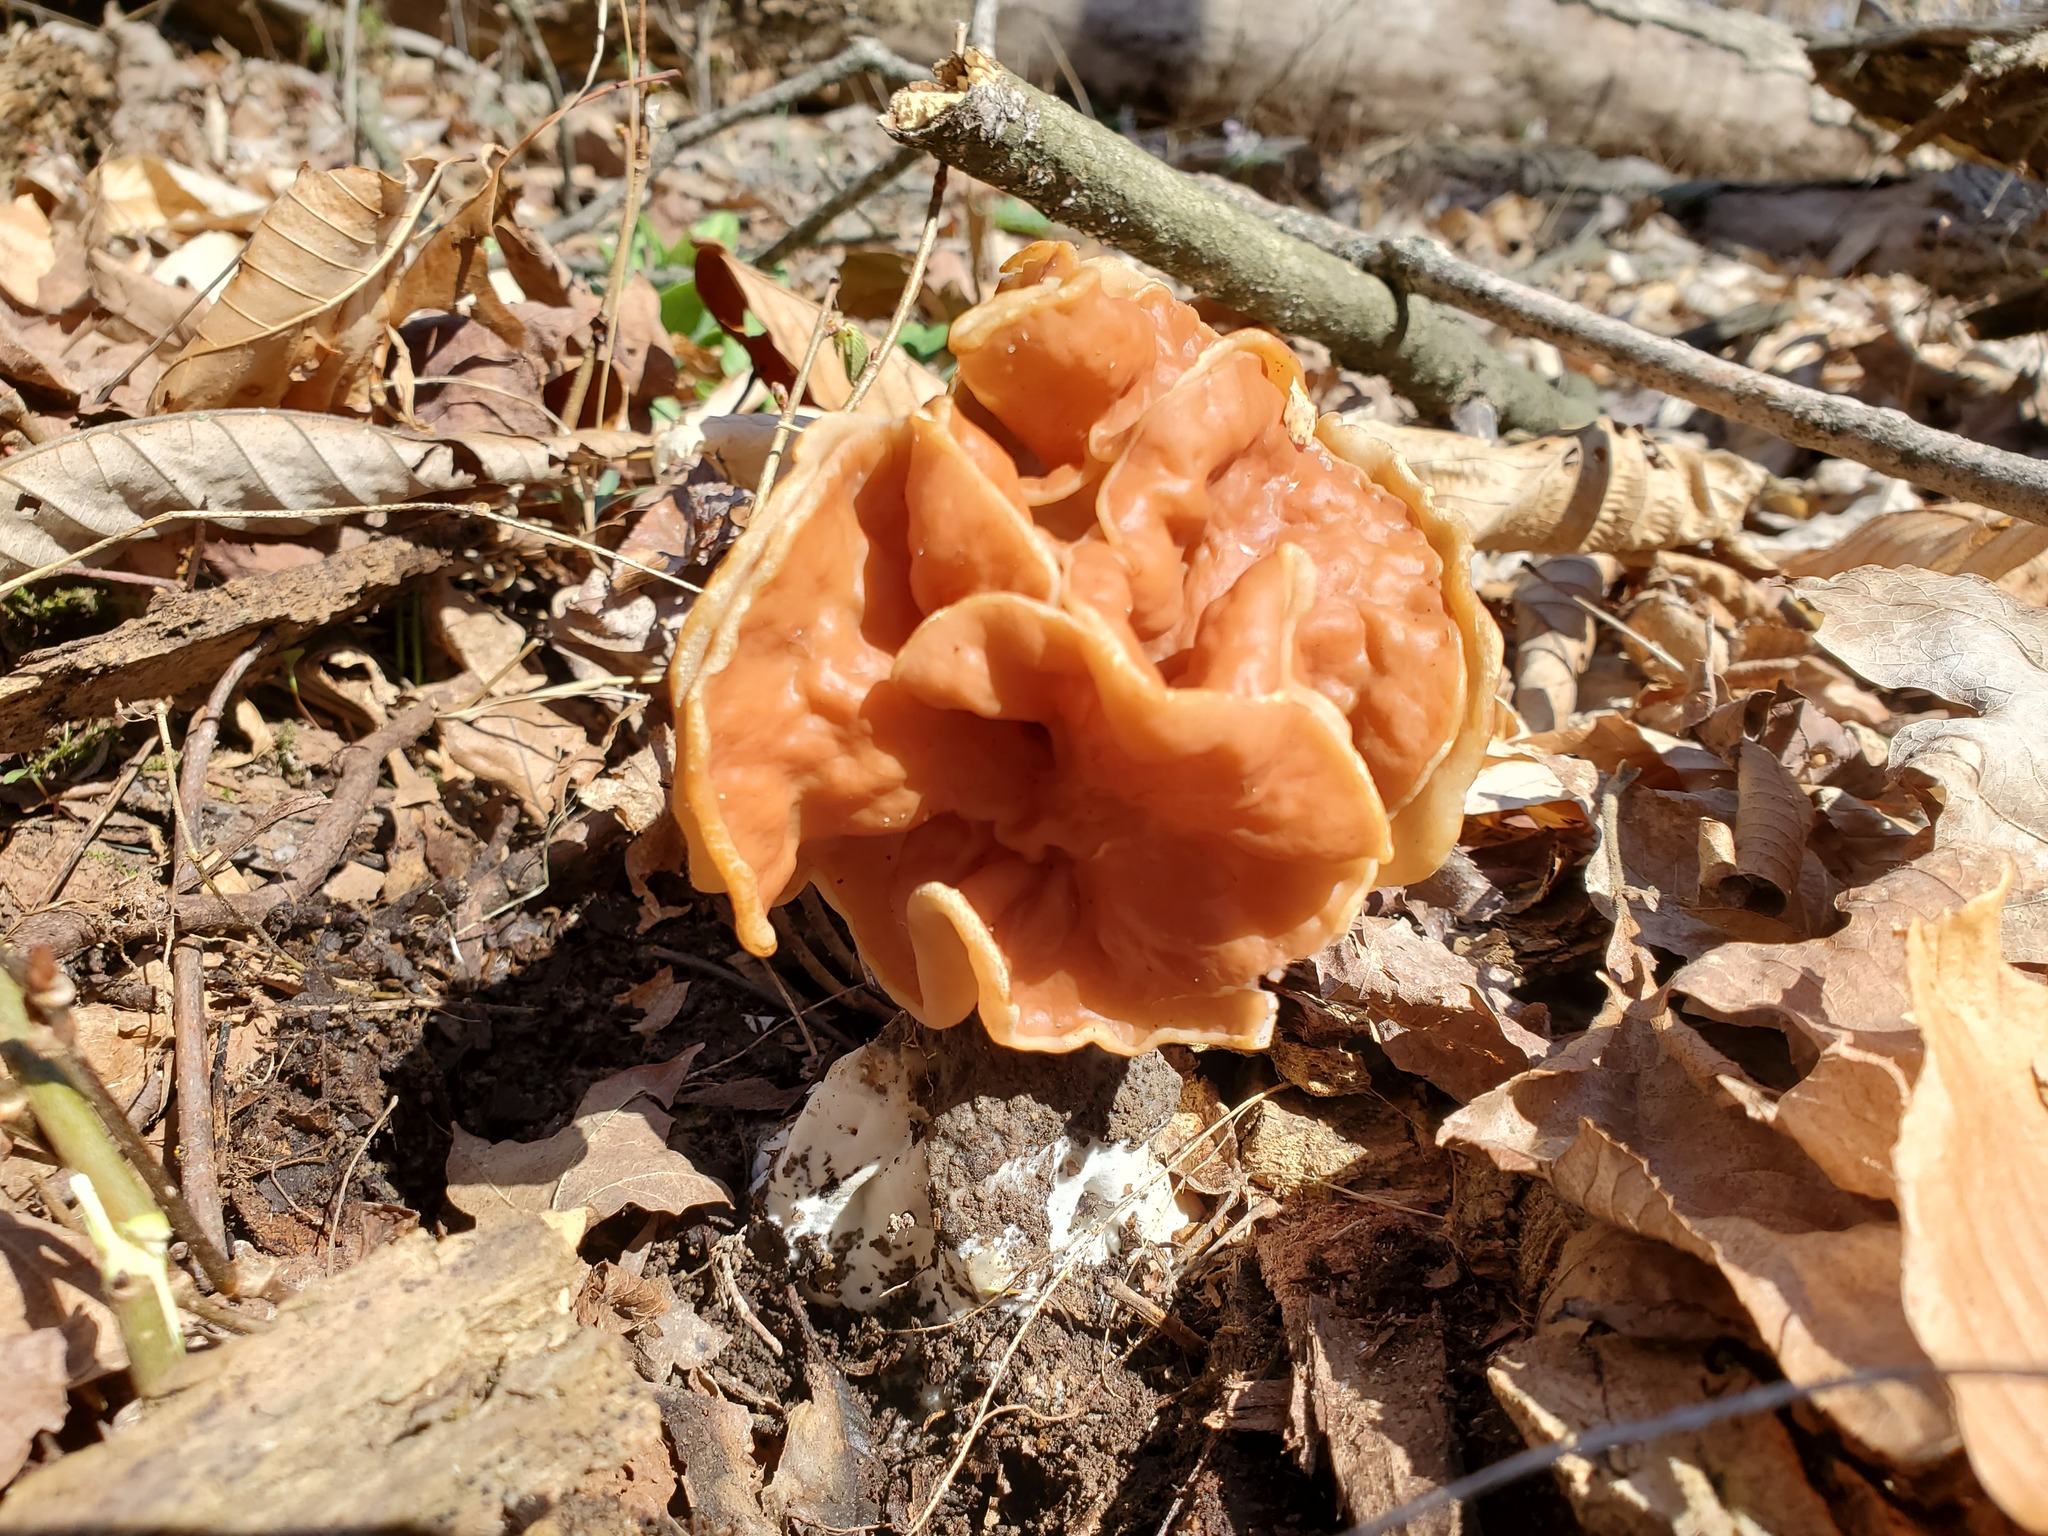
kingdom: Fungi
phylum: Ascomycota
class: Pezizomycetes
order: Pezizales
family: Discinaceae
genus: Discina
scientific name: Discina brunnea
